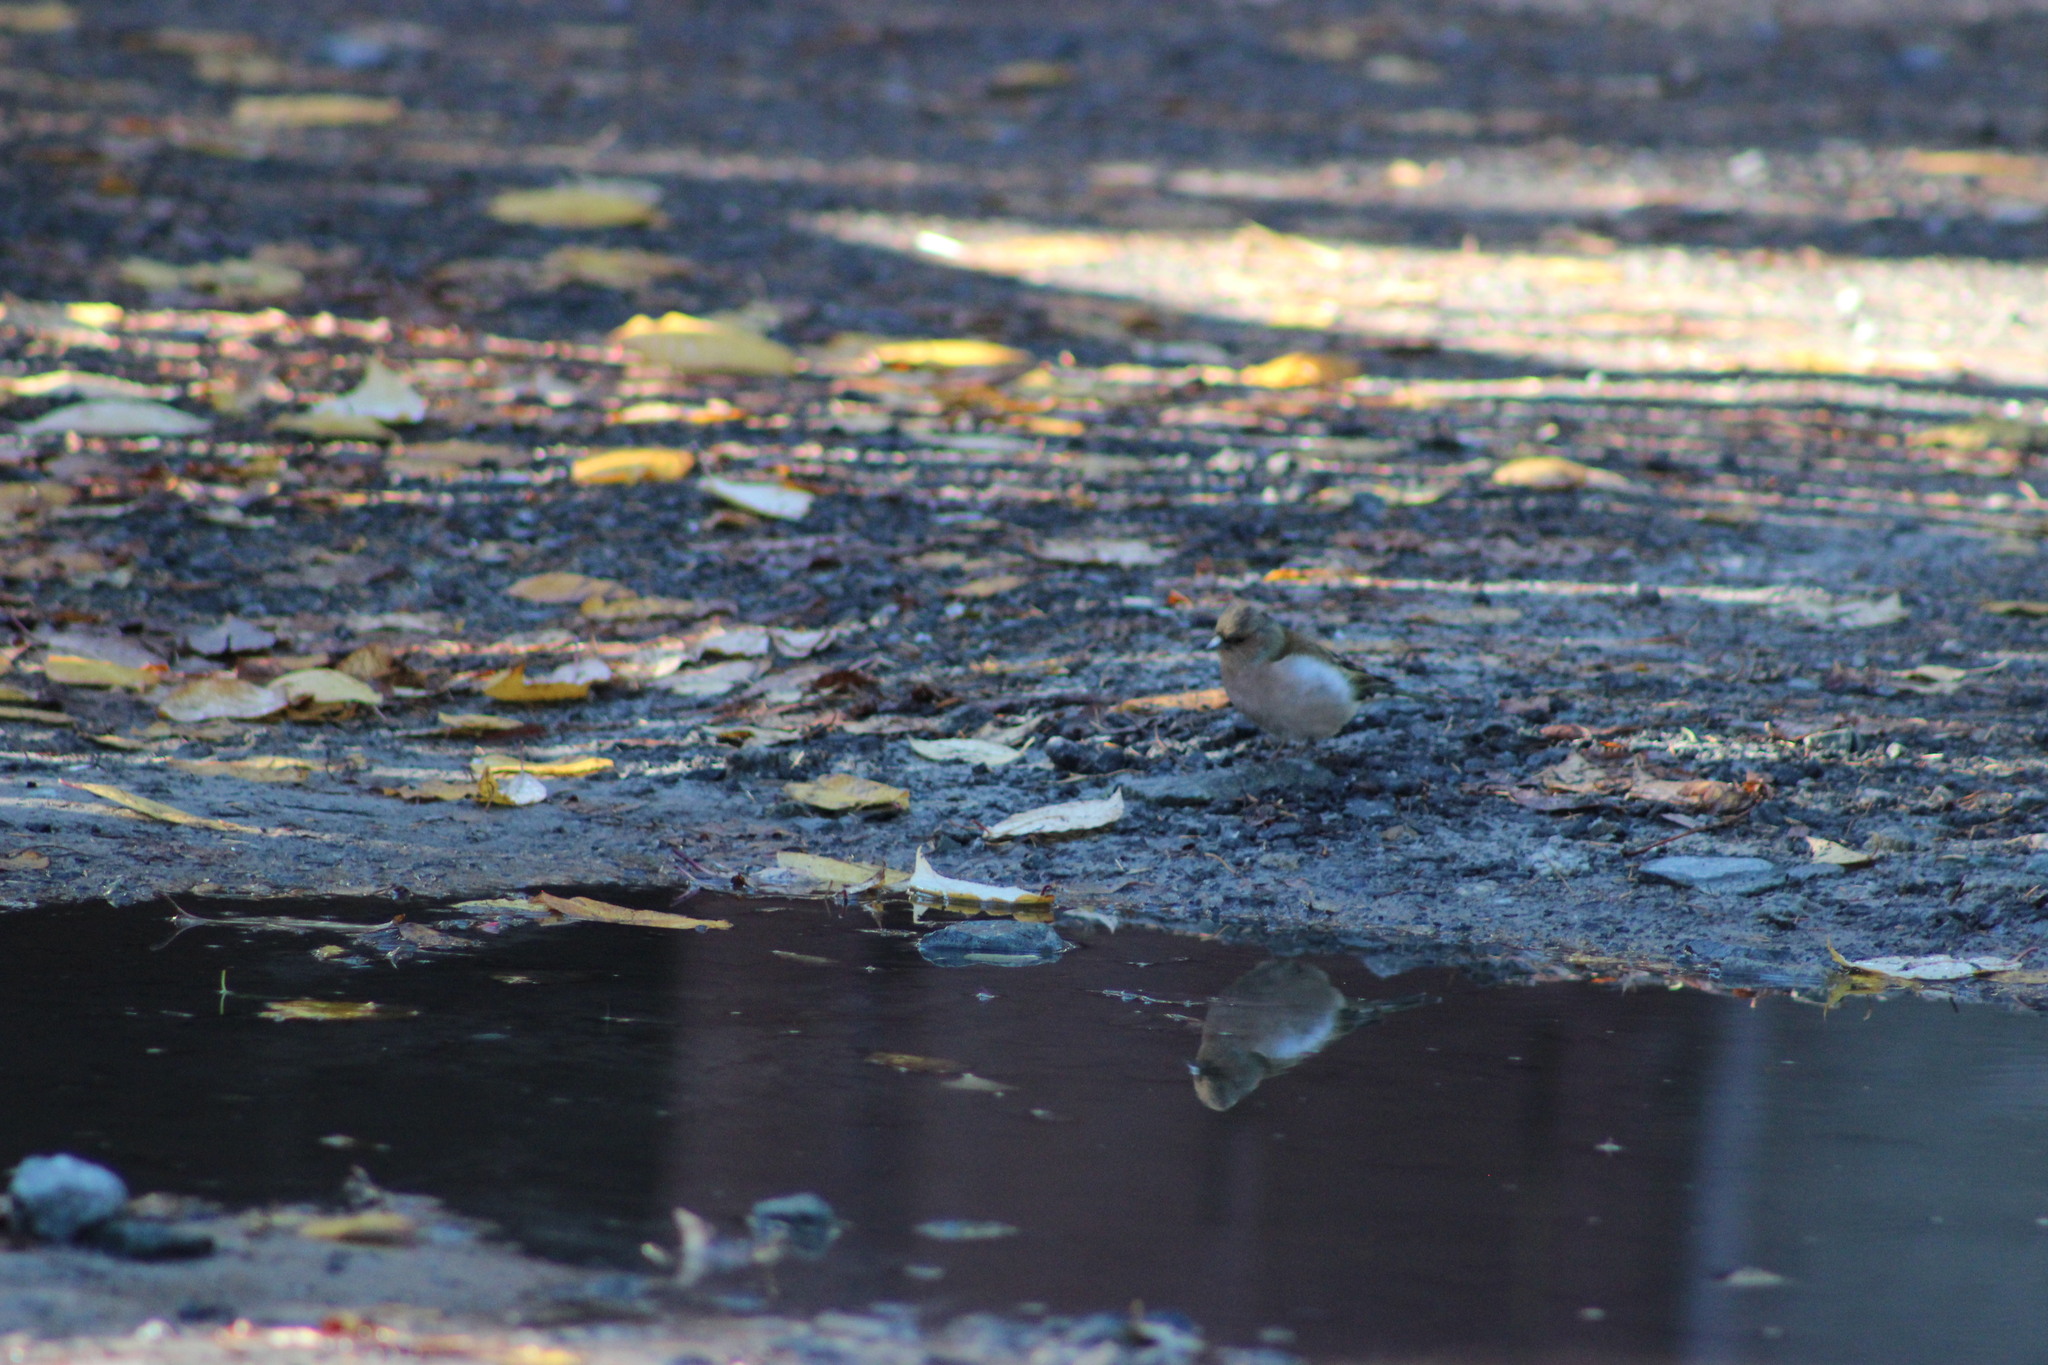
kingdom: Animalia
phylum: Chordata
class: Aves
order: Passeriformes
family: Fringillidae
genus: Fringilla
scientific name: Fringilla coelebs
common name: Common chaffinch
